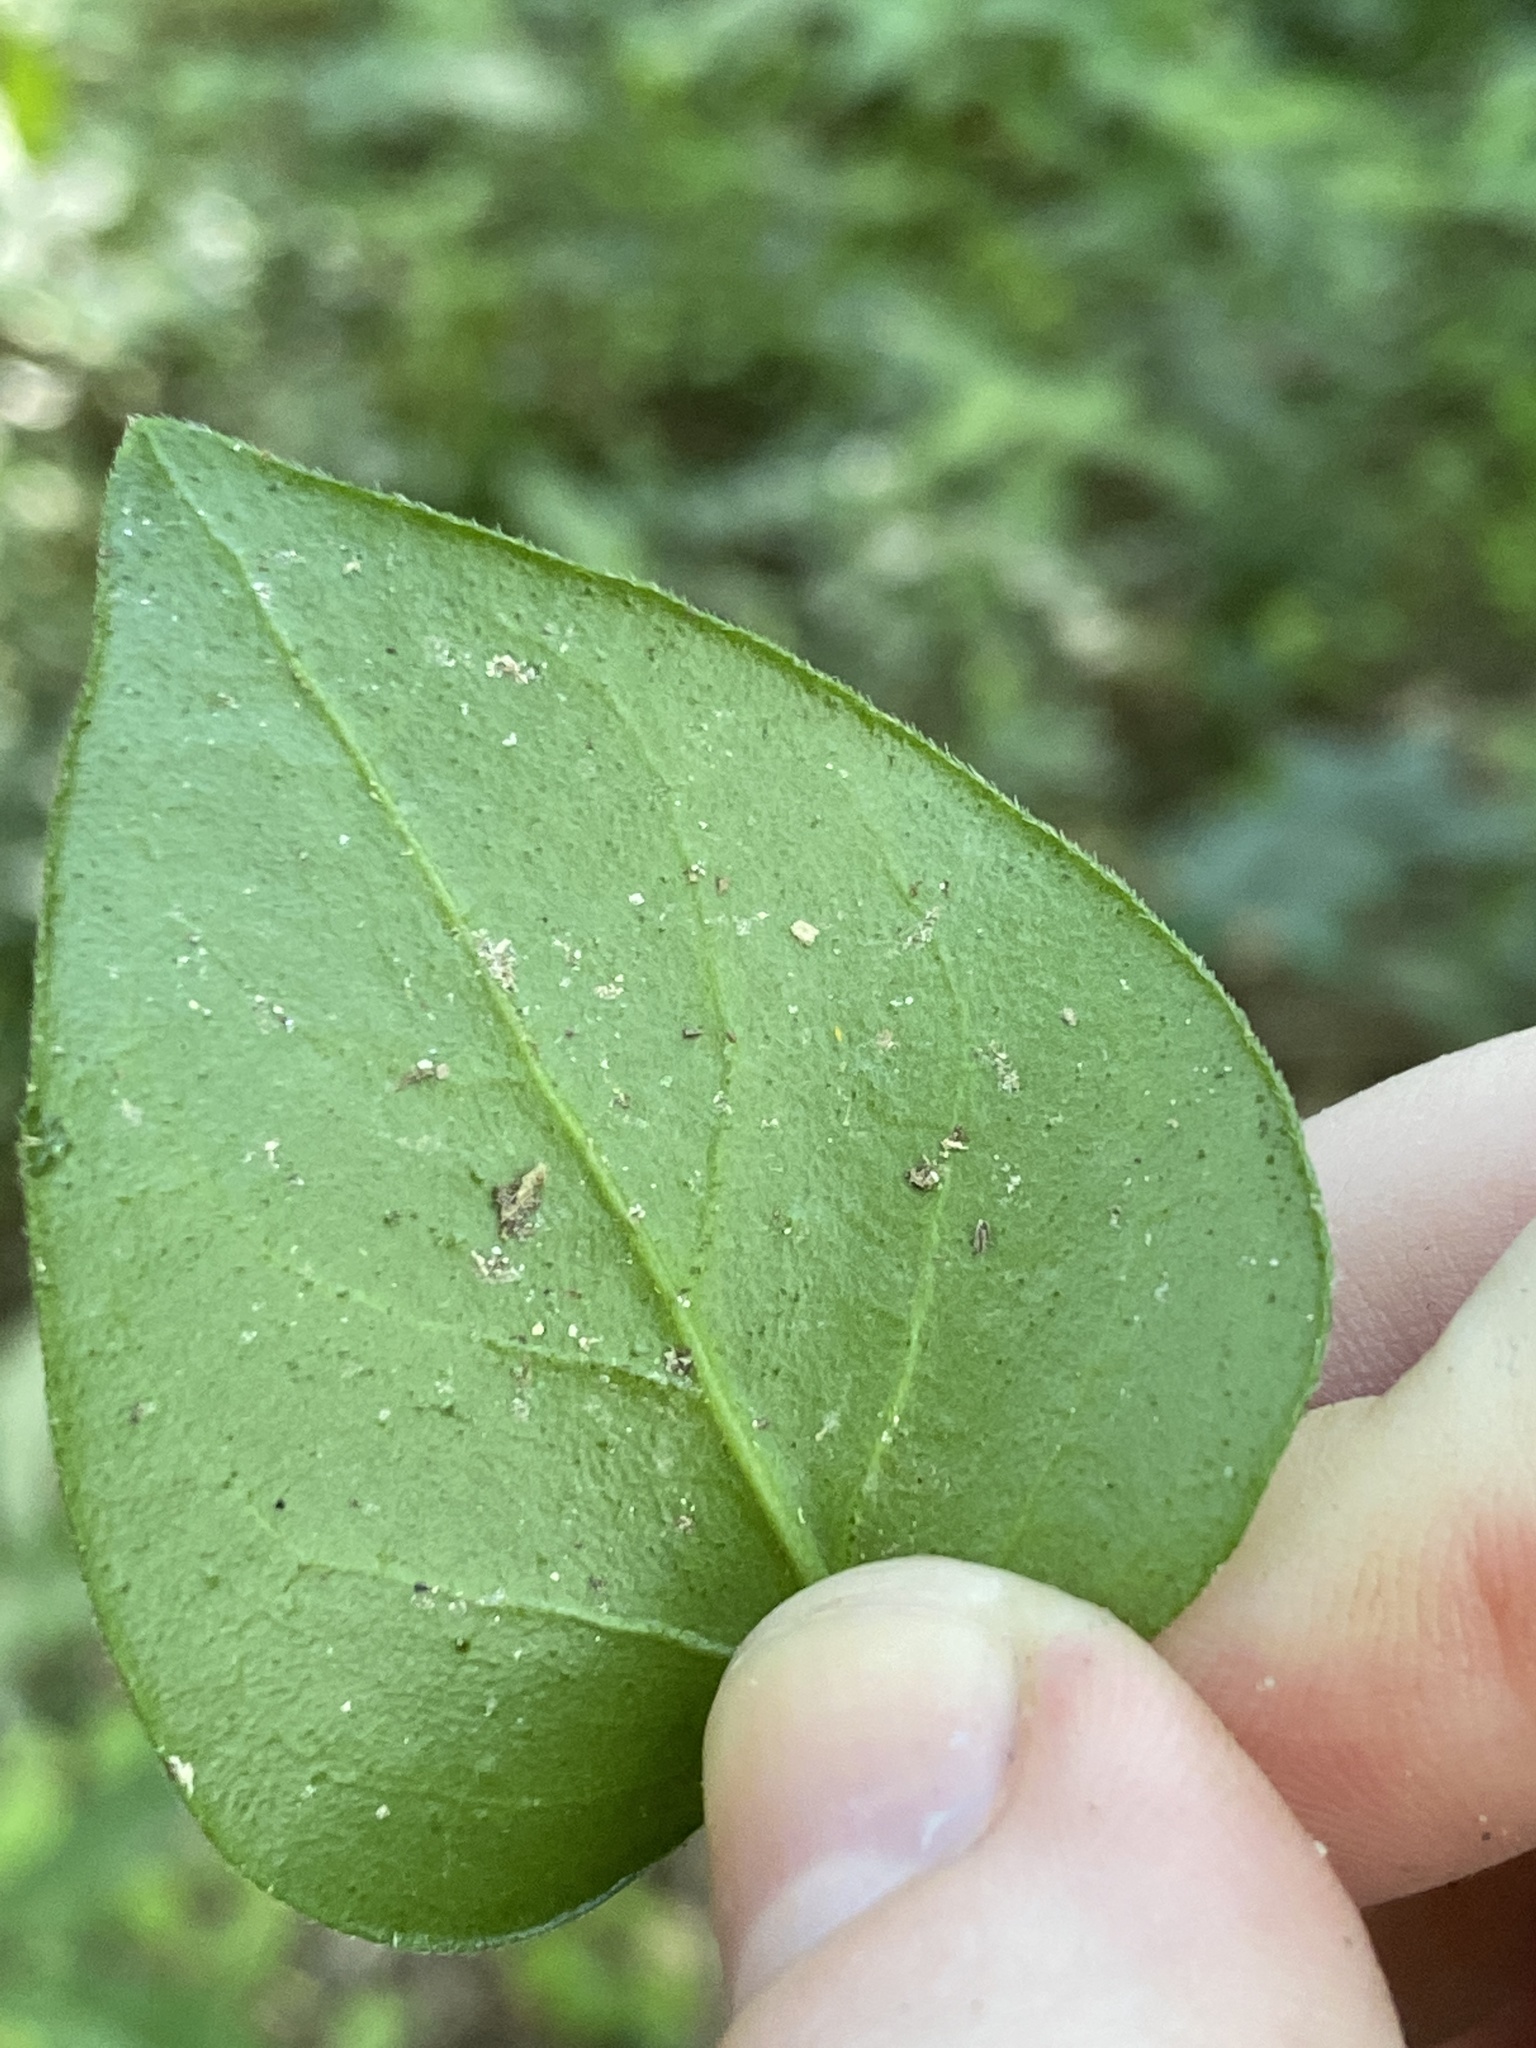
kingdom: Plantae
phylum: Tracheophyta
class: Magnoliopsida
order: Gentianales
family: Apocynaceae
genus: Vinca
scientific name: Vinca major
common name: Greater periwinkle
